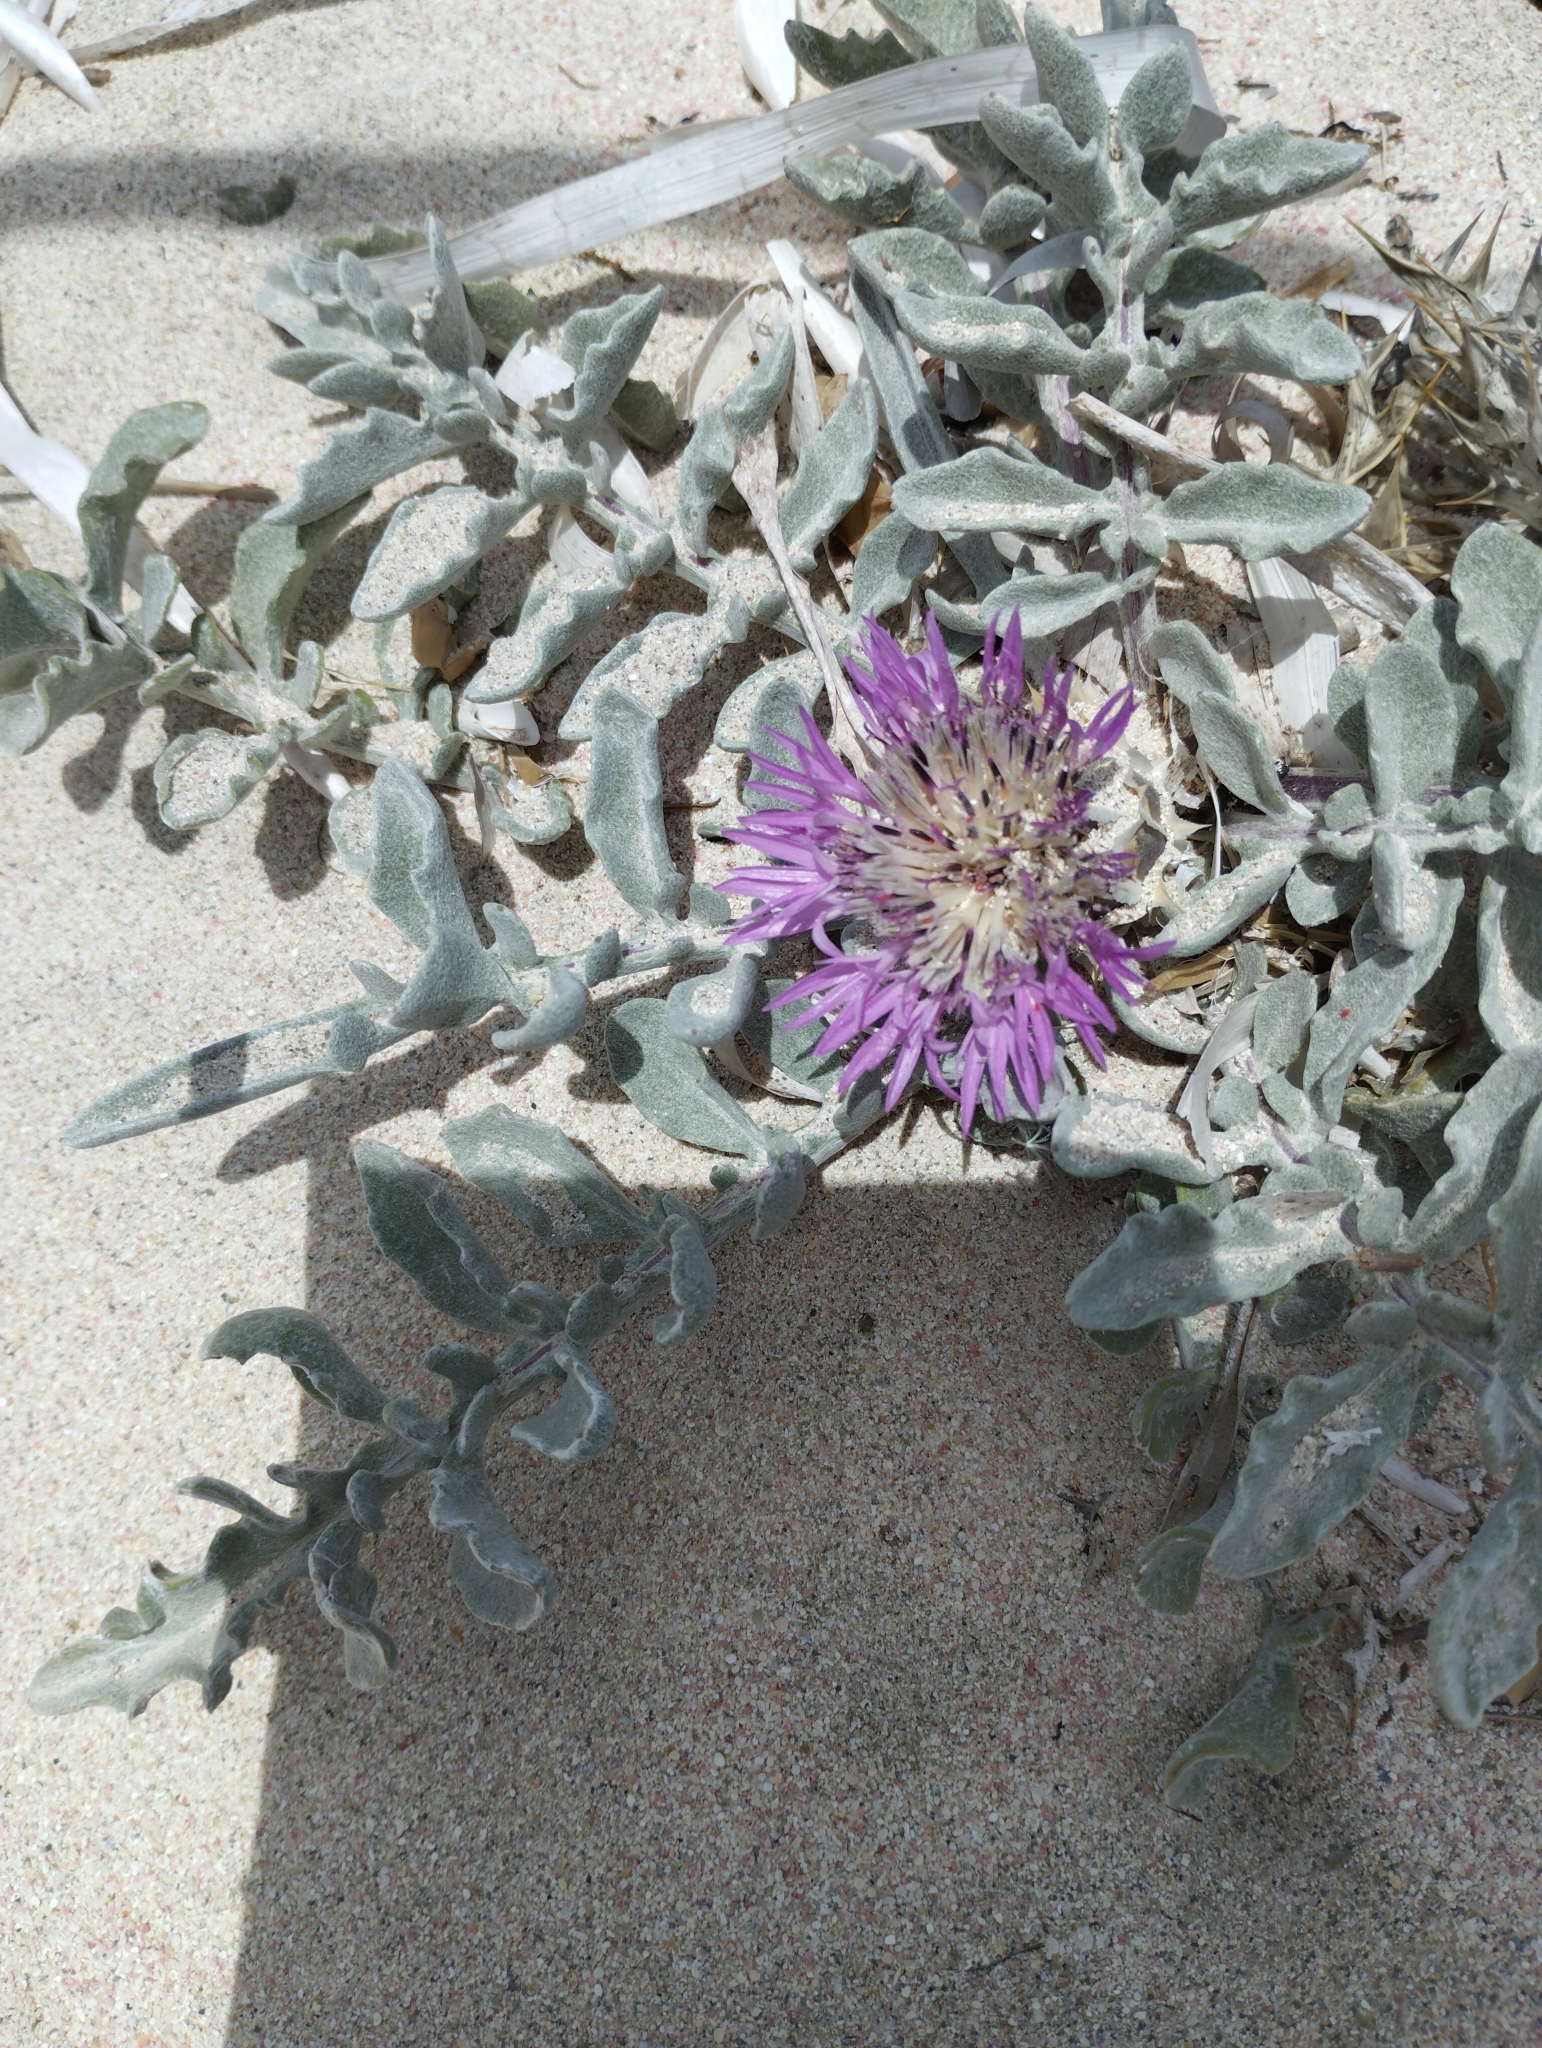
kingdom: Plantae
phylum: Tracheophyta
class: Magnoliopsida
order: Asterales
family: Asteraceae
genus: Crocodilium
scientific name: Crocodilium pumilio
